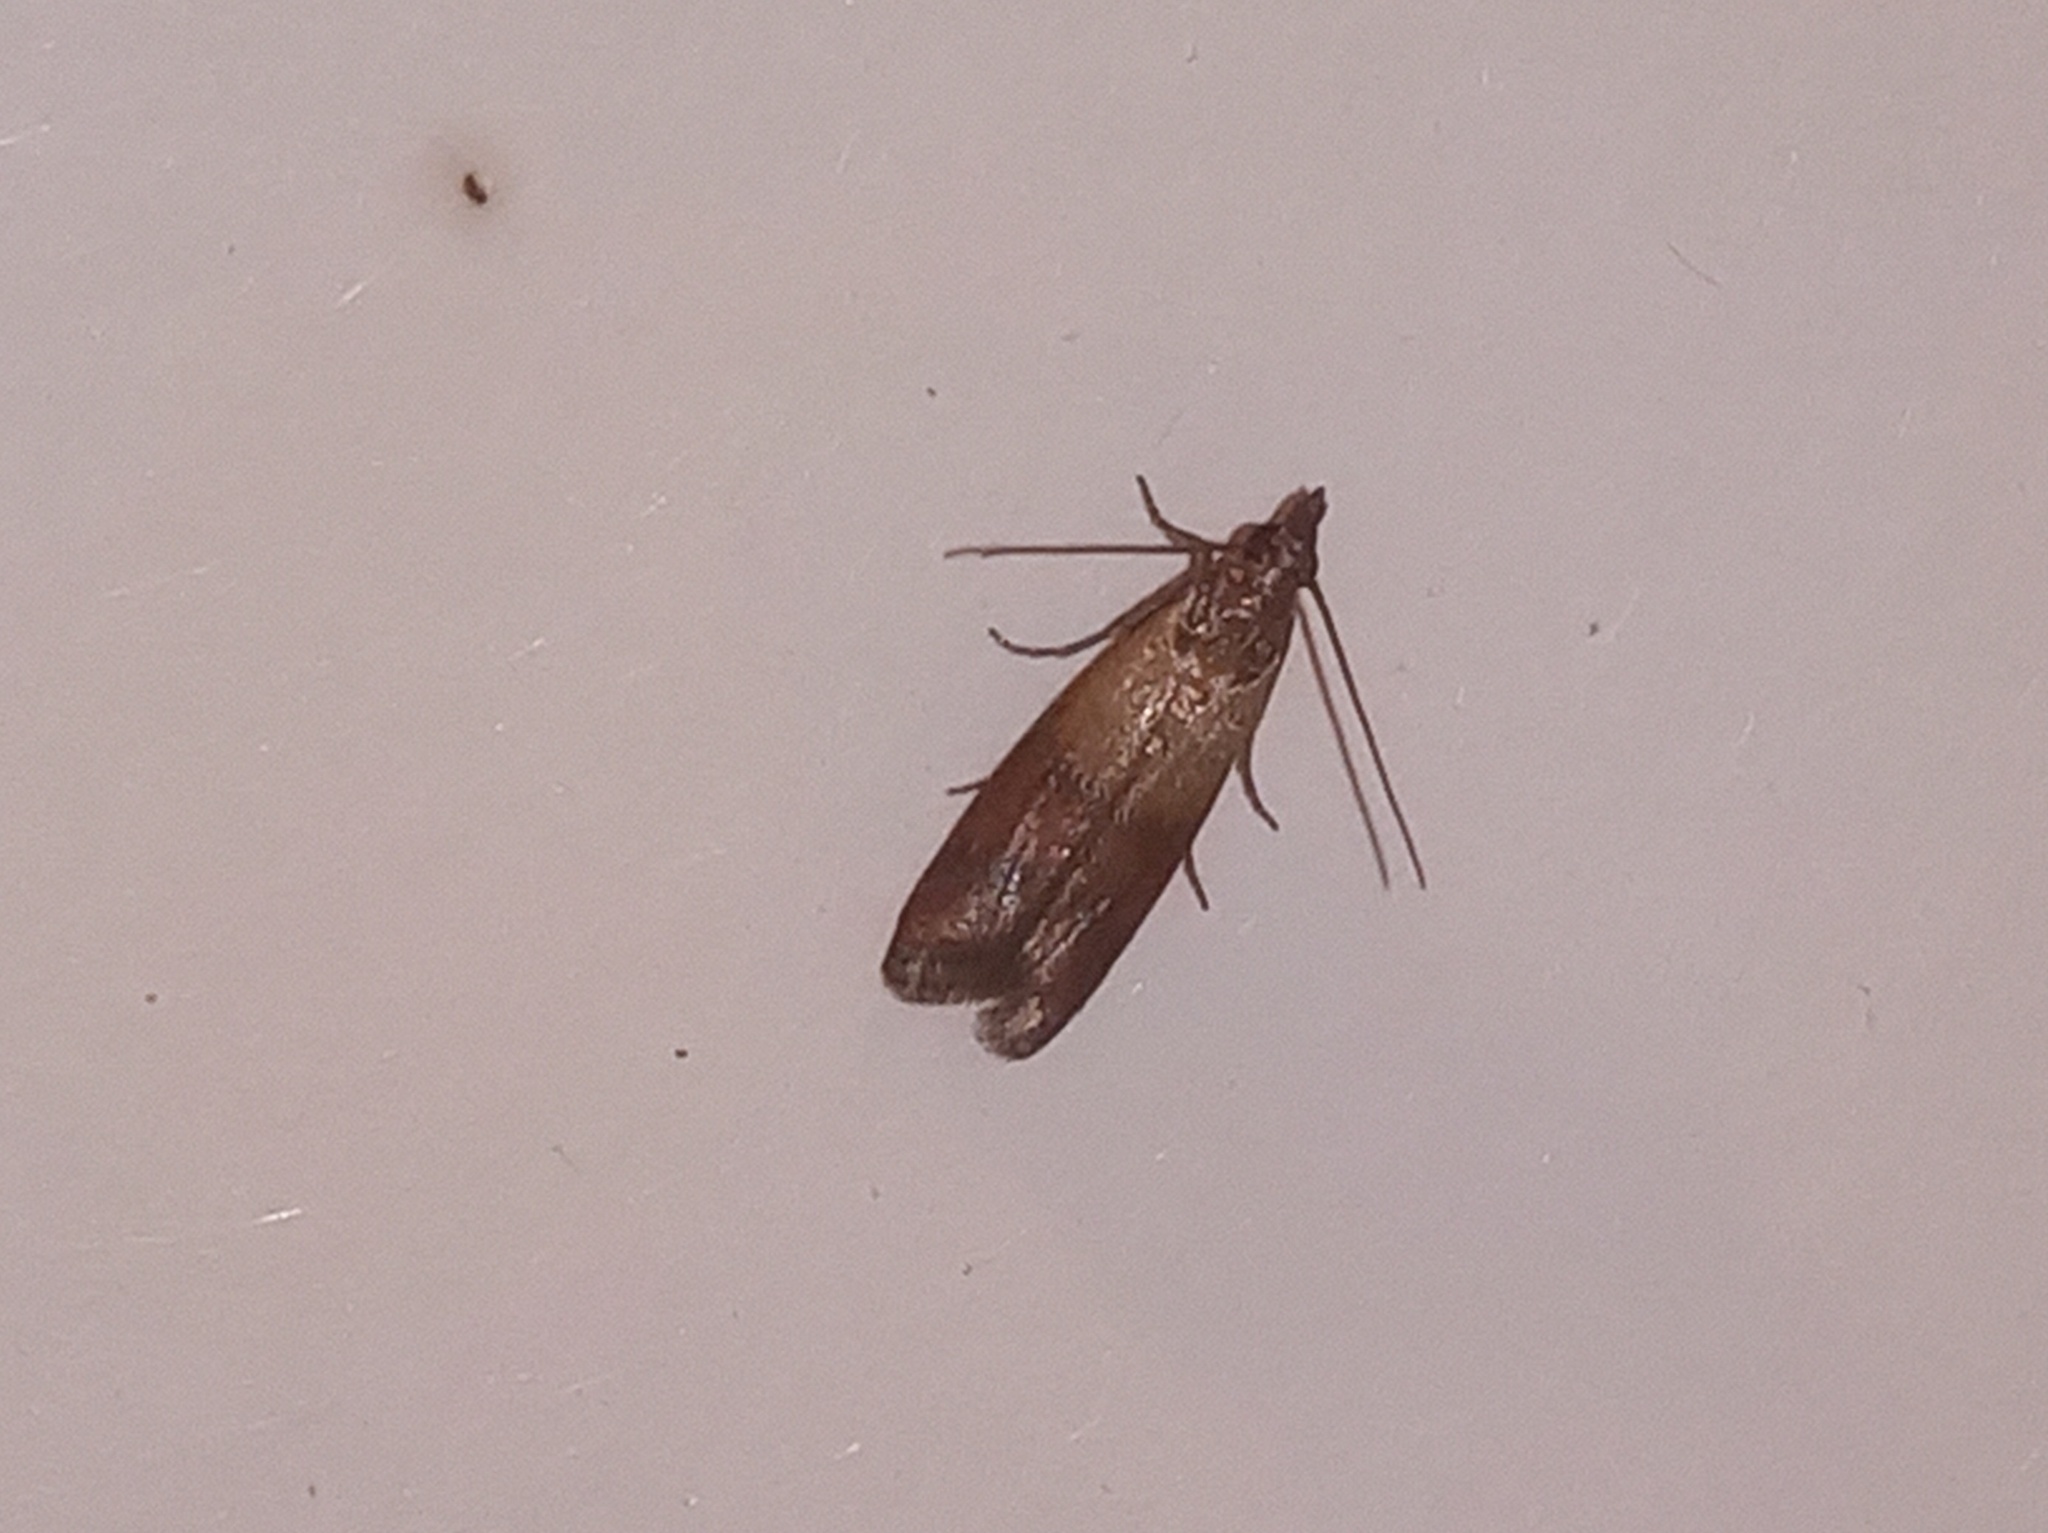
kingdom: Animalia
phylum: Arthropoda
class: Insecta
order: Lepidoptera
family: Pyralidae
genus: Plodia
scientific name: Plodia interpunctella
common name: Indian meal moth
